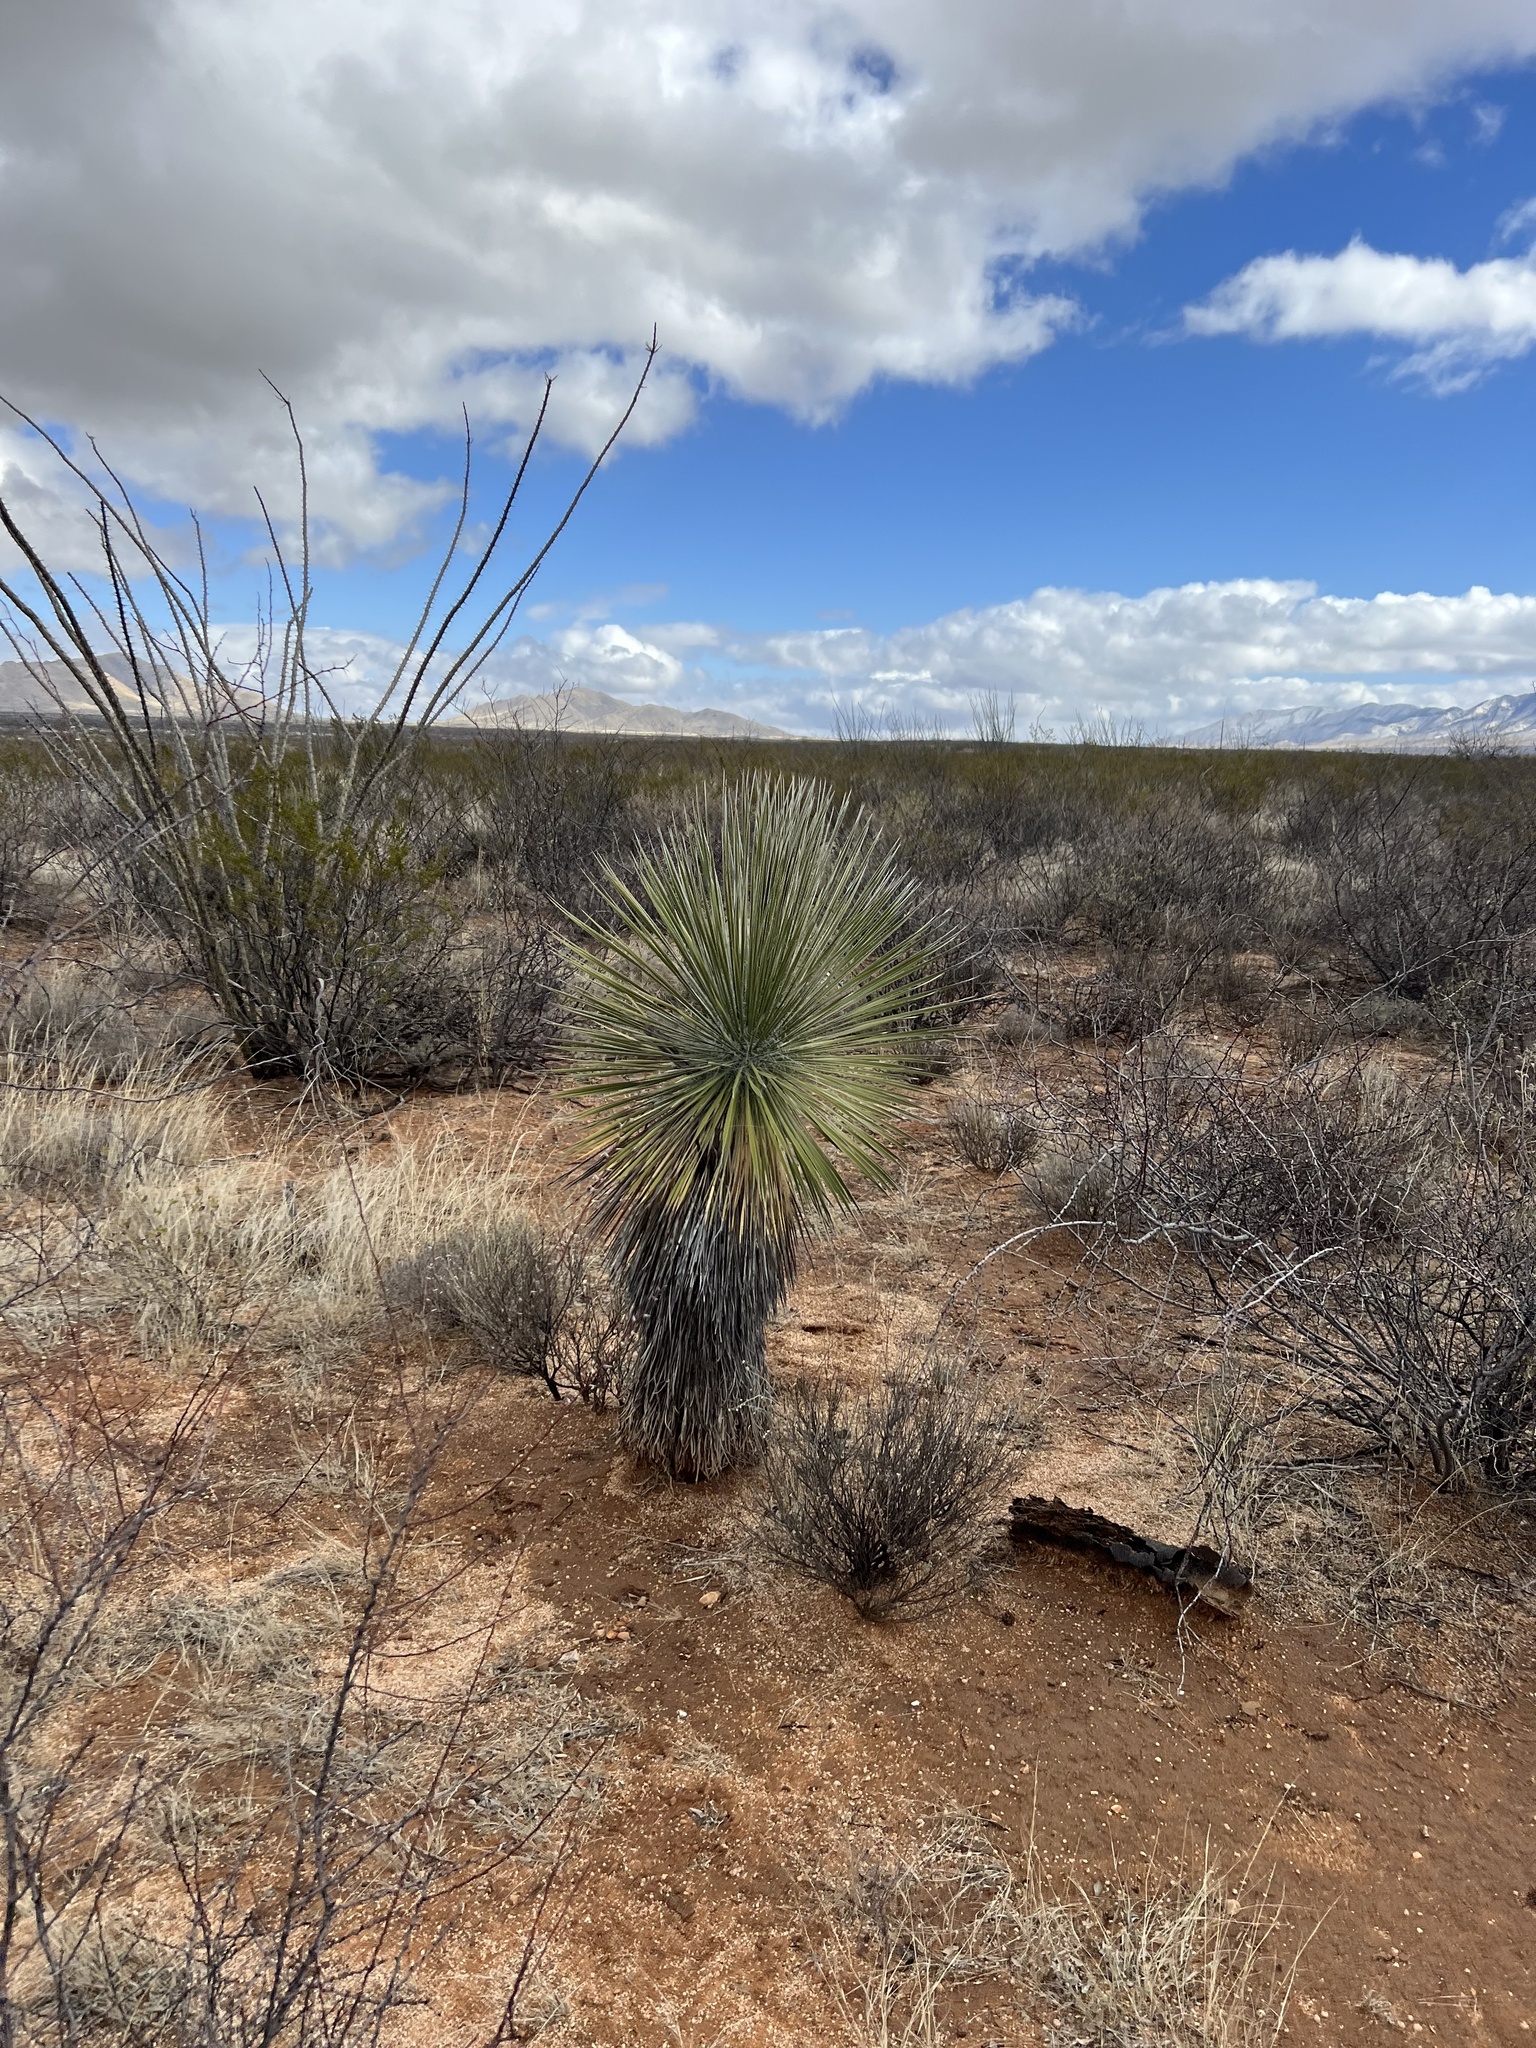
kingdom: Plantae
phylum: Tracheophyta
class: Liliopsida
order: Asparagales
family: Asparagaceae
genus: Yucca
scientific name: Yucca elata
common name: Palmella
